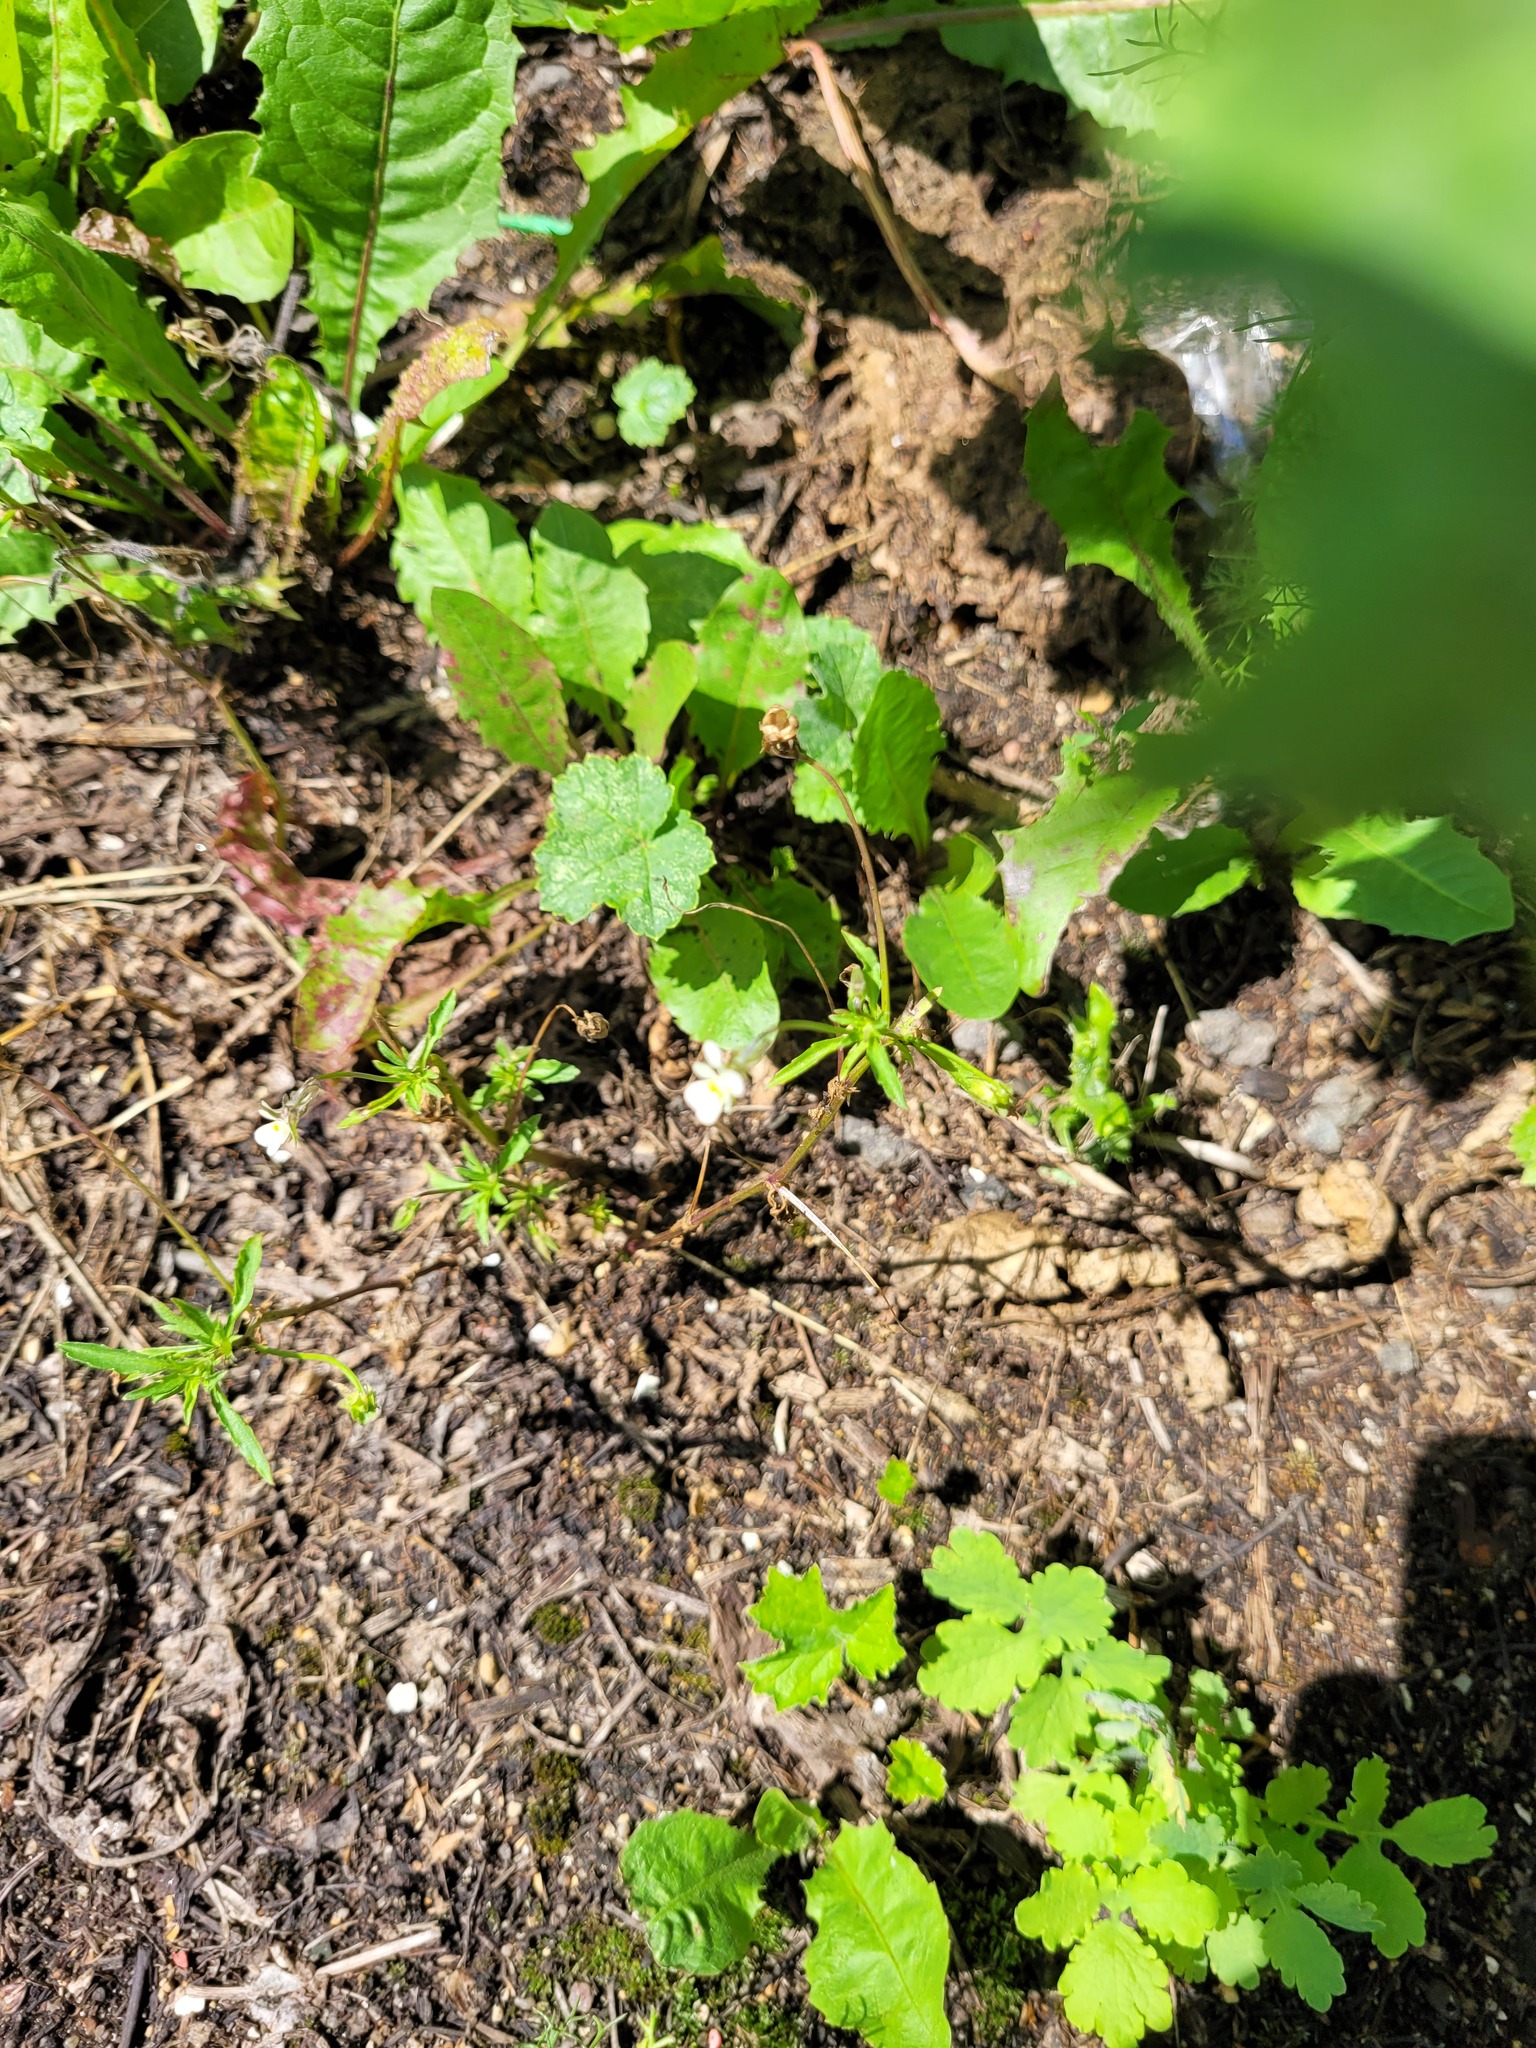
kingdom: Plantae
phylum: Tracheophyta
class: Magnoliopsida
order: Malpighiales
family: Violaceae
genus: Viola
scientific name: Viola arvensis
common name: Field pansy
